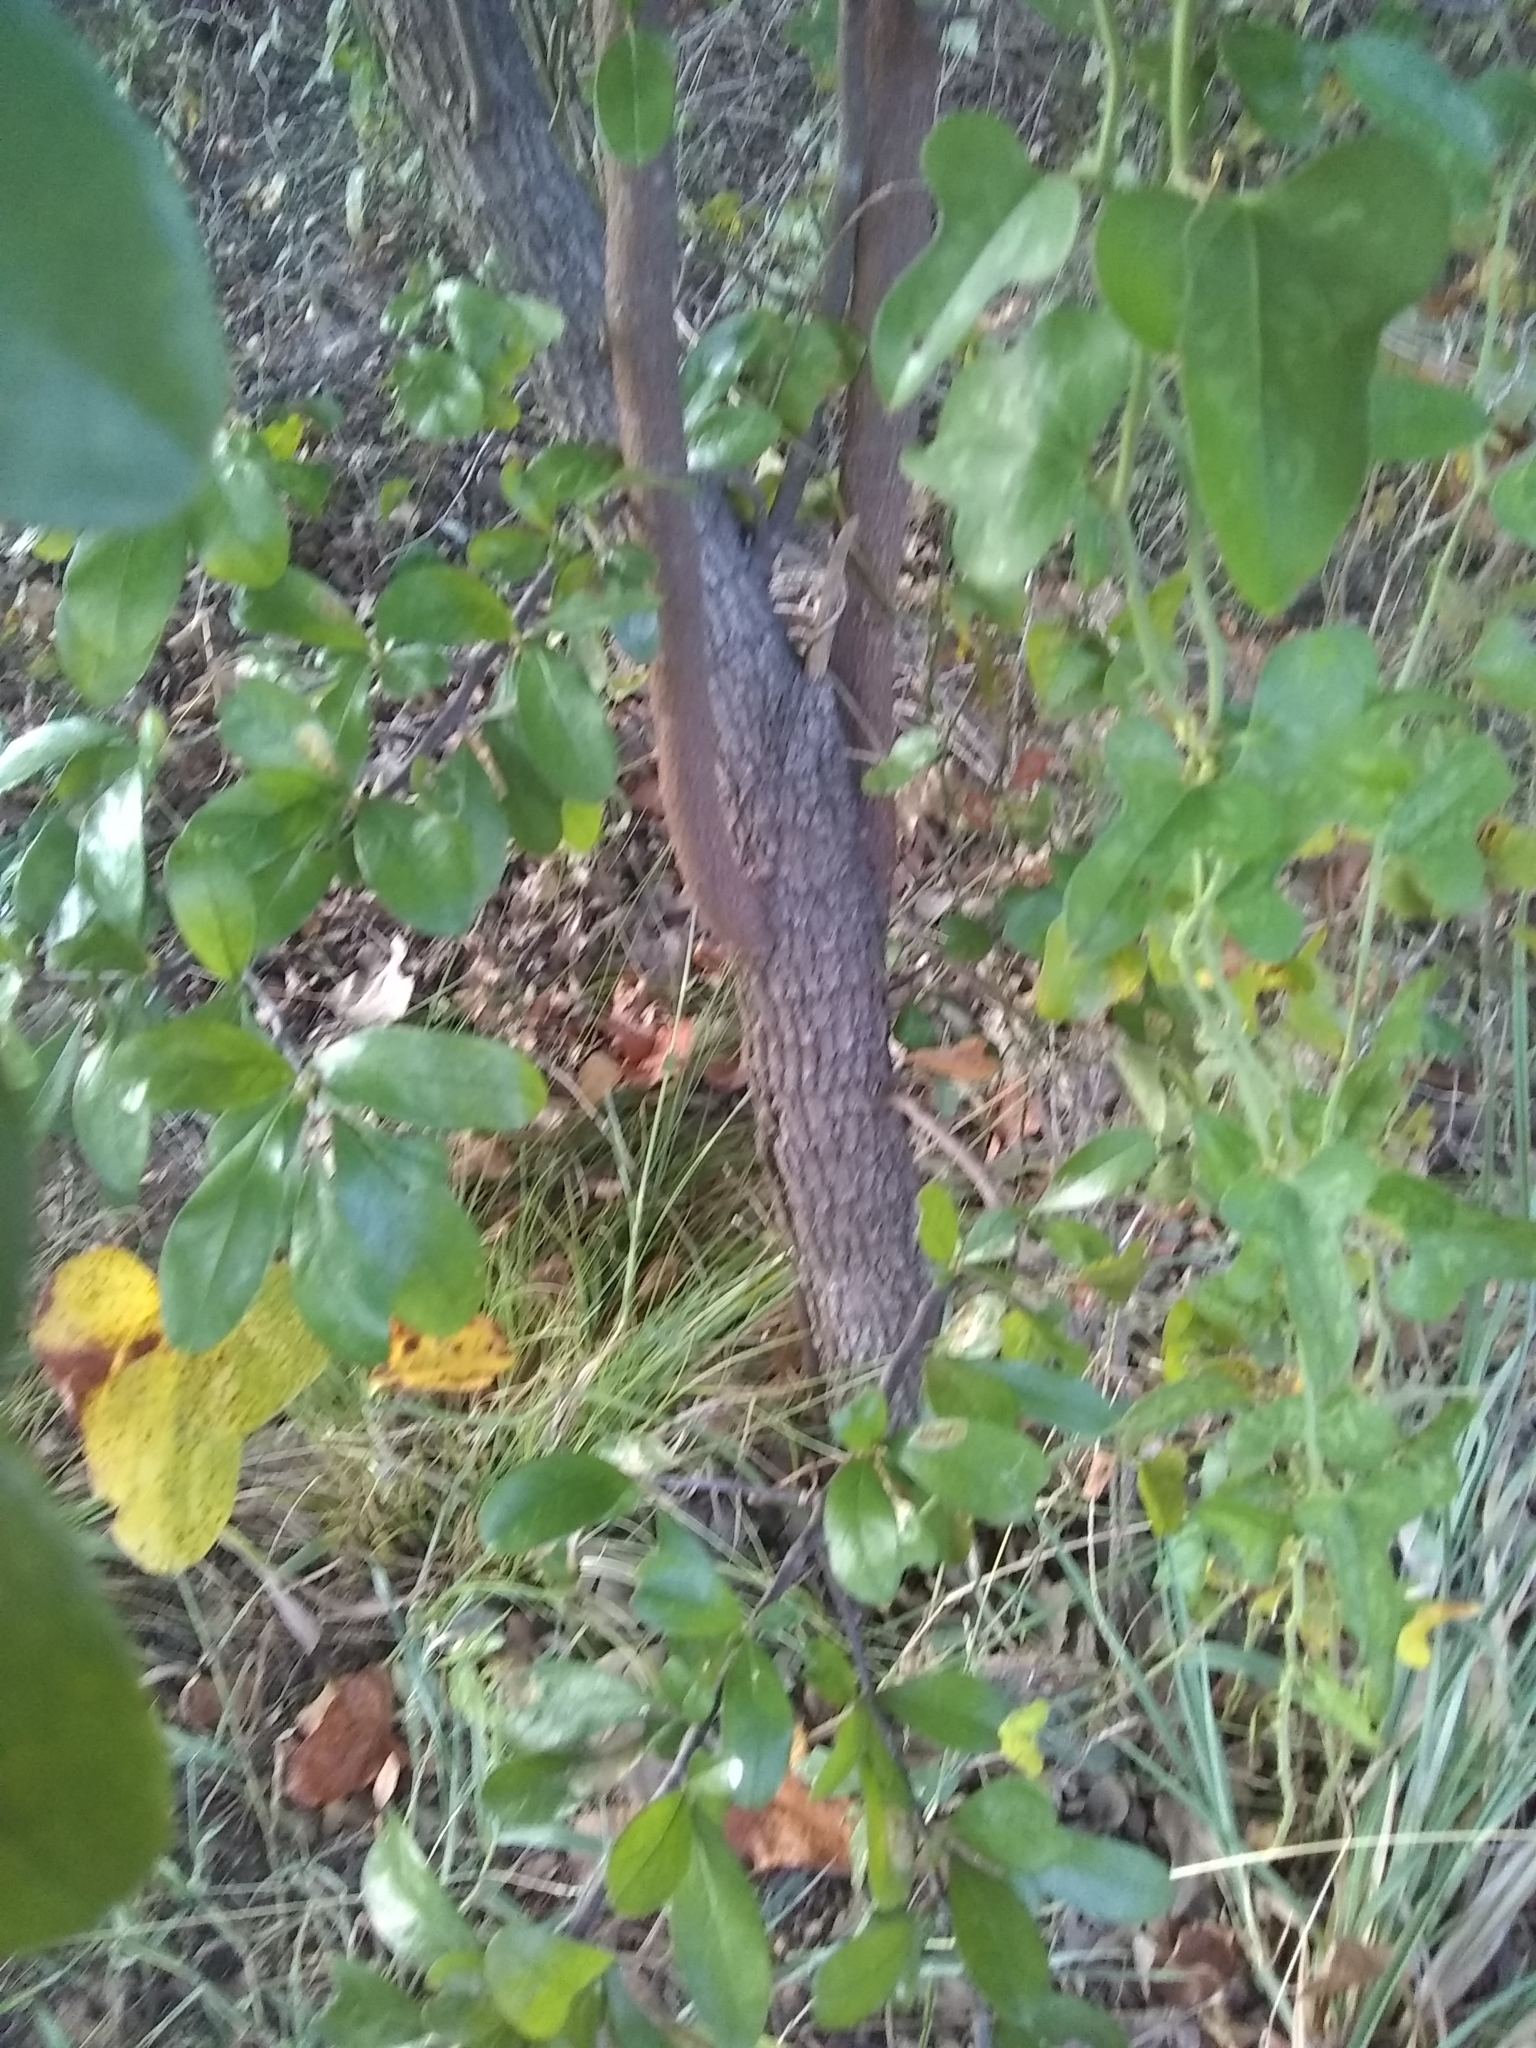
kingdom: Plantae
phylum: Tracheophyta
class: Magnoliopsida
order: Ericales
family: Sapotaceae
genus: Sideroxylon
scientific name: Sideroxylon lanuginosum
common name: Chittamwood
